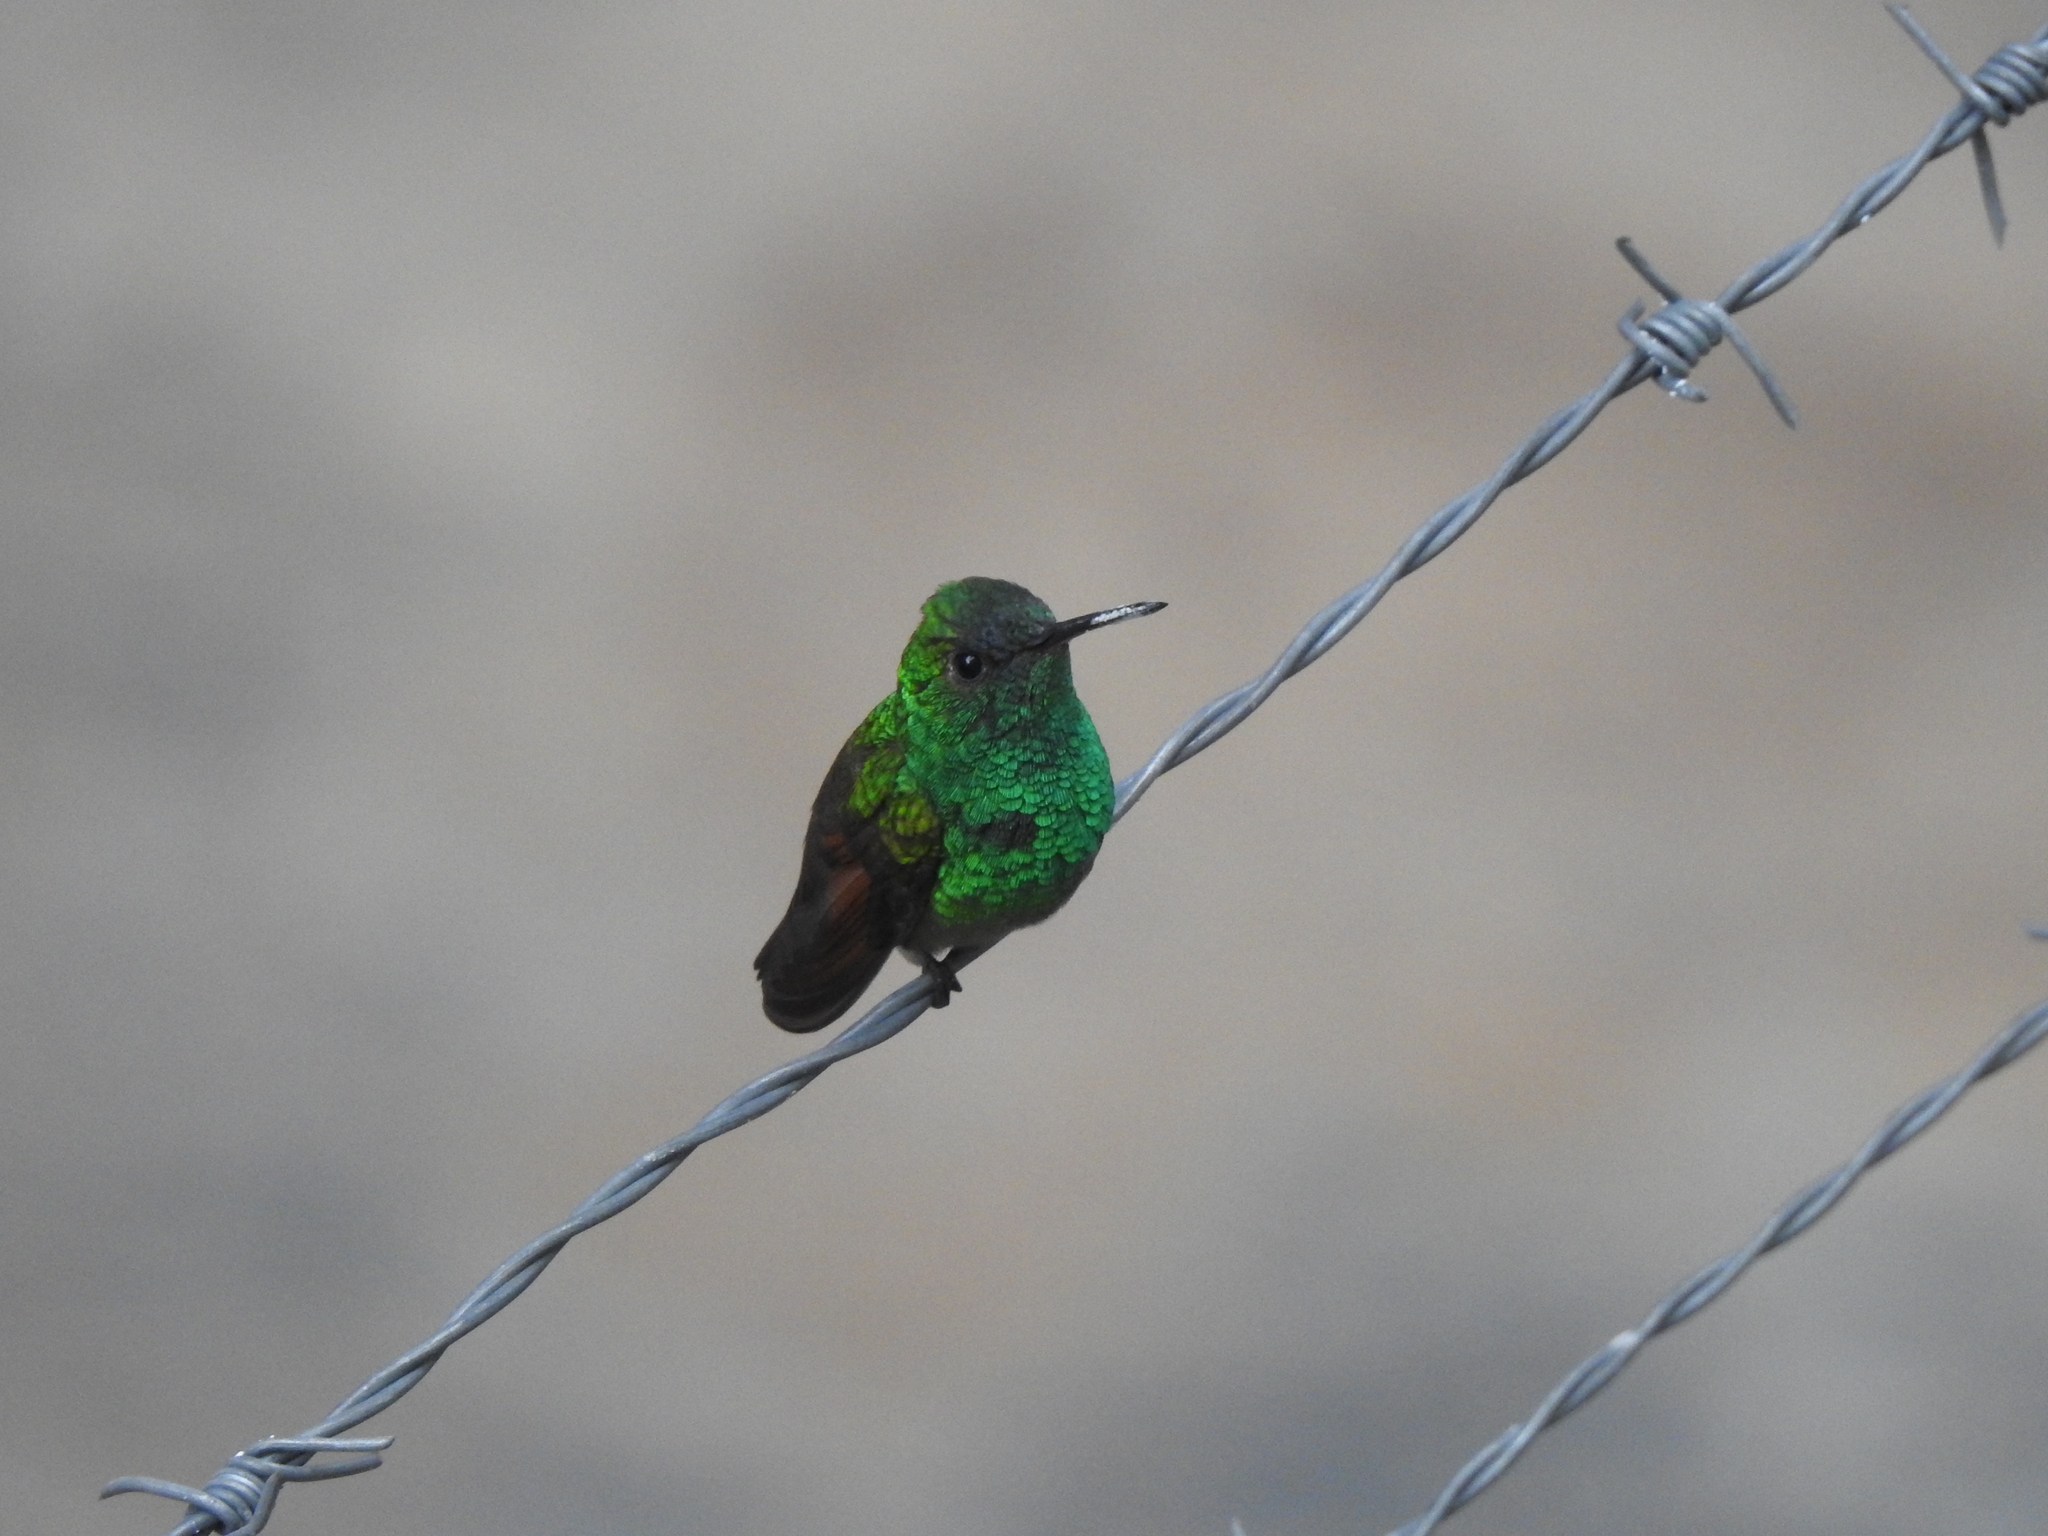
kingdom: Animalia
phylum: Chordata
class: Aves
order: Apodiformes
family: Trochilidae
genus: Saucerottia
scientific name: Saucerottia beryllina
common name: Berylline hummingbird
